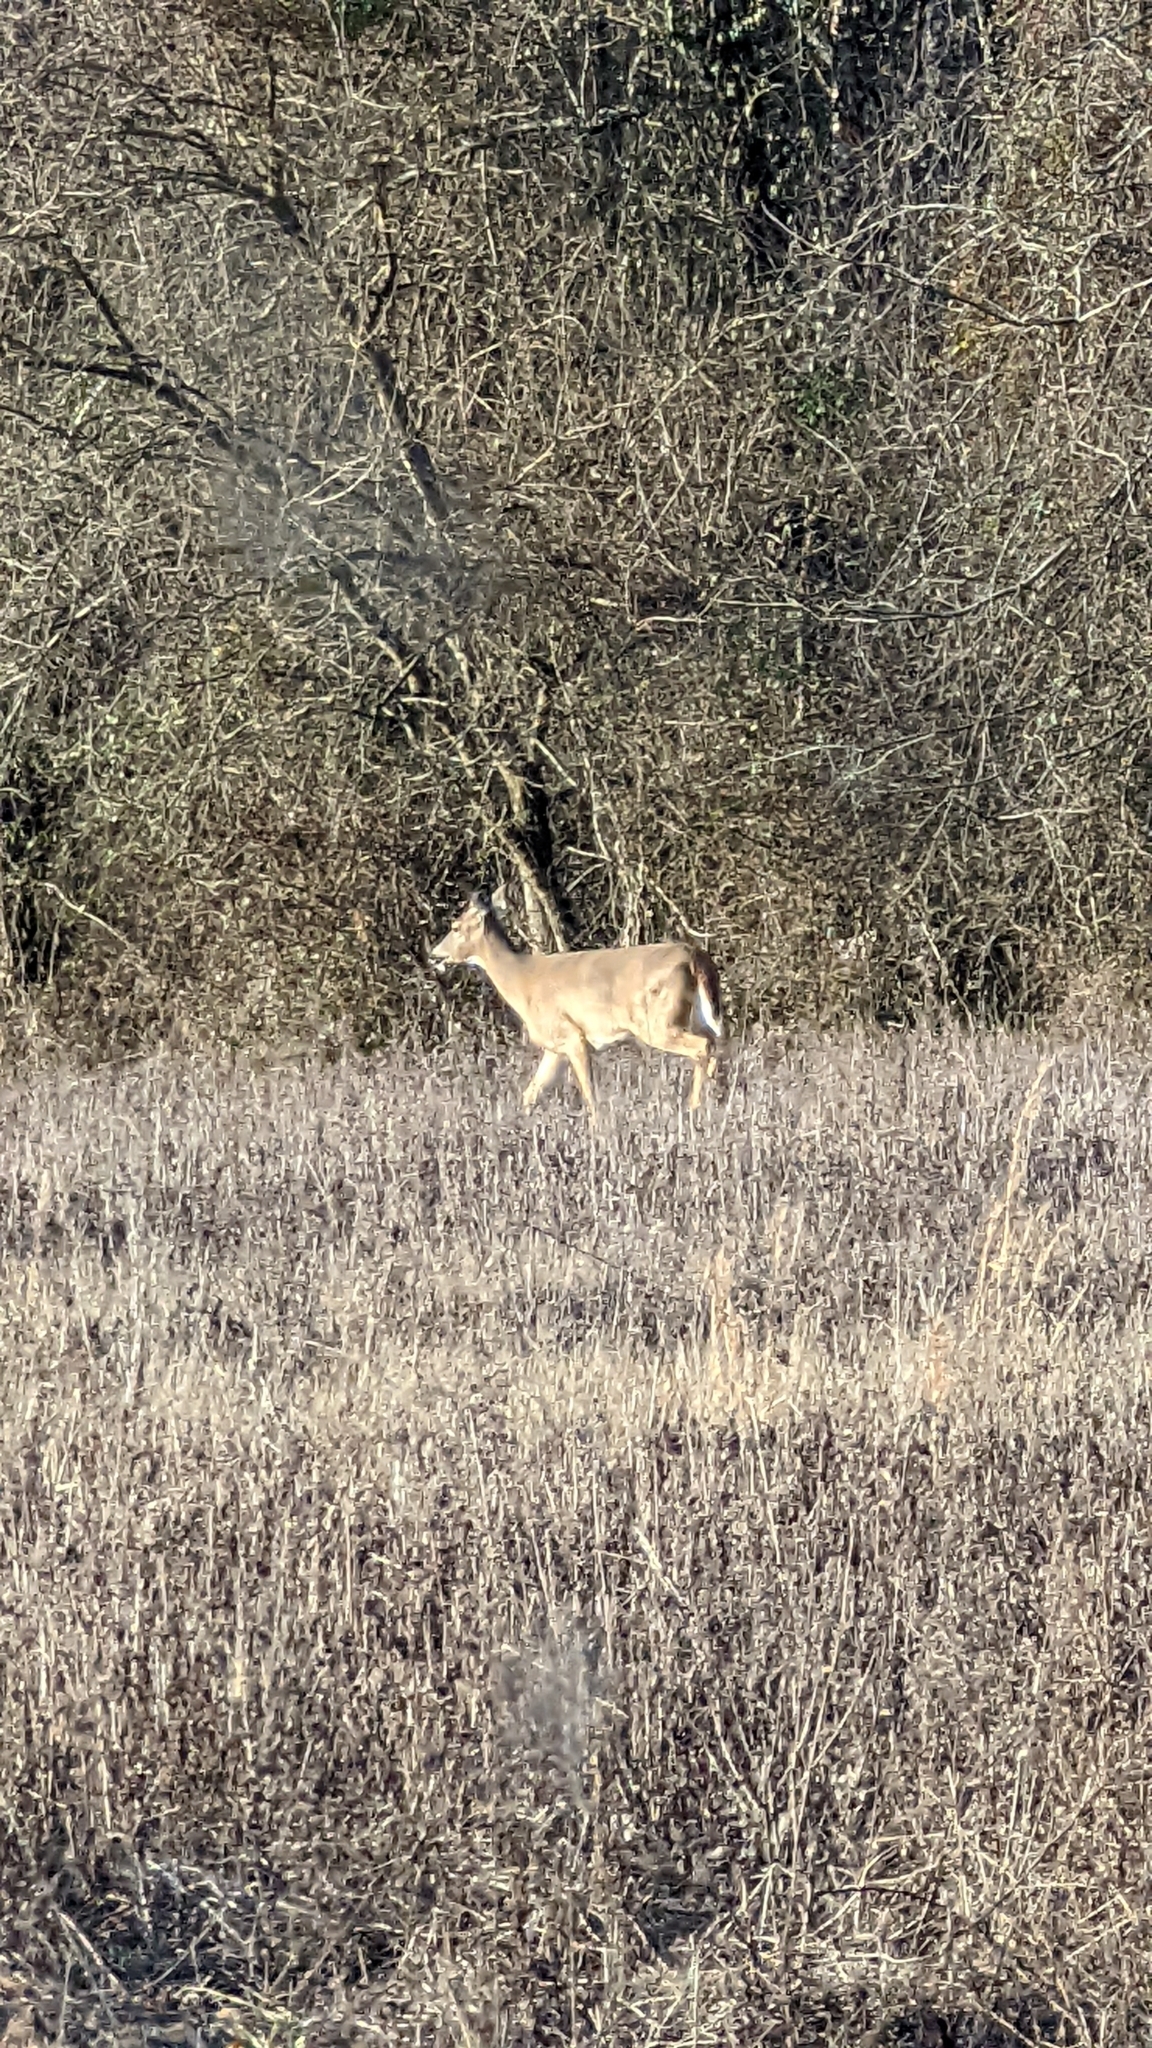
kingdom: Animalia
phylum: Chordata
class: Mammalia
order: Artiodactyla
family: Cervidae
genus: Odocoileus
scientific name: Odocoileus virginianus
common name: White-tailed deer
